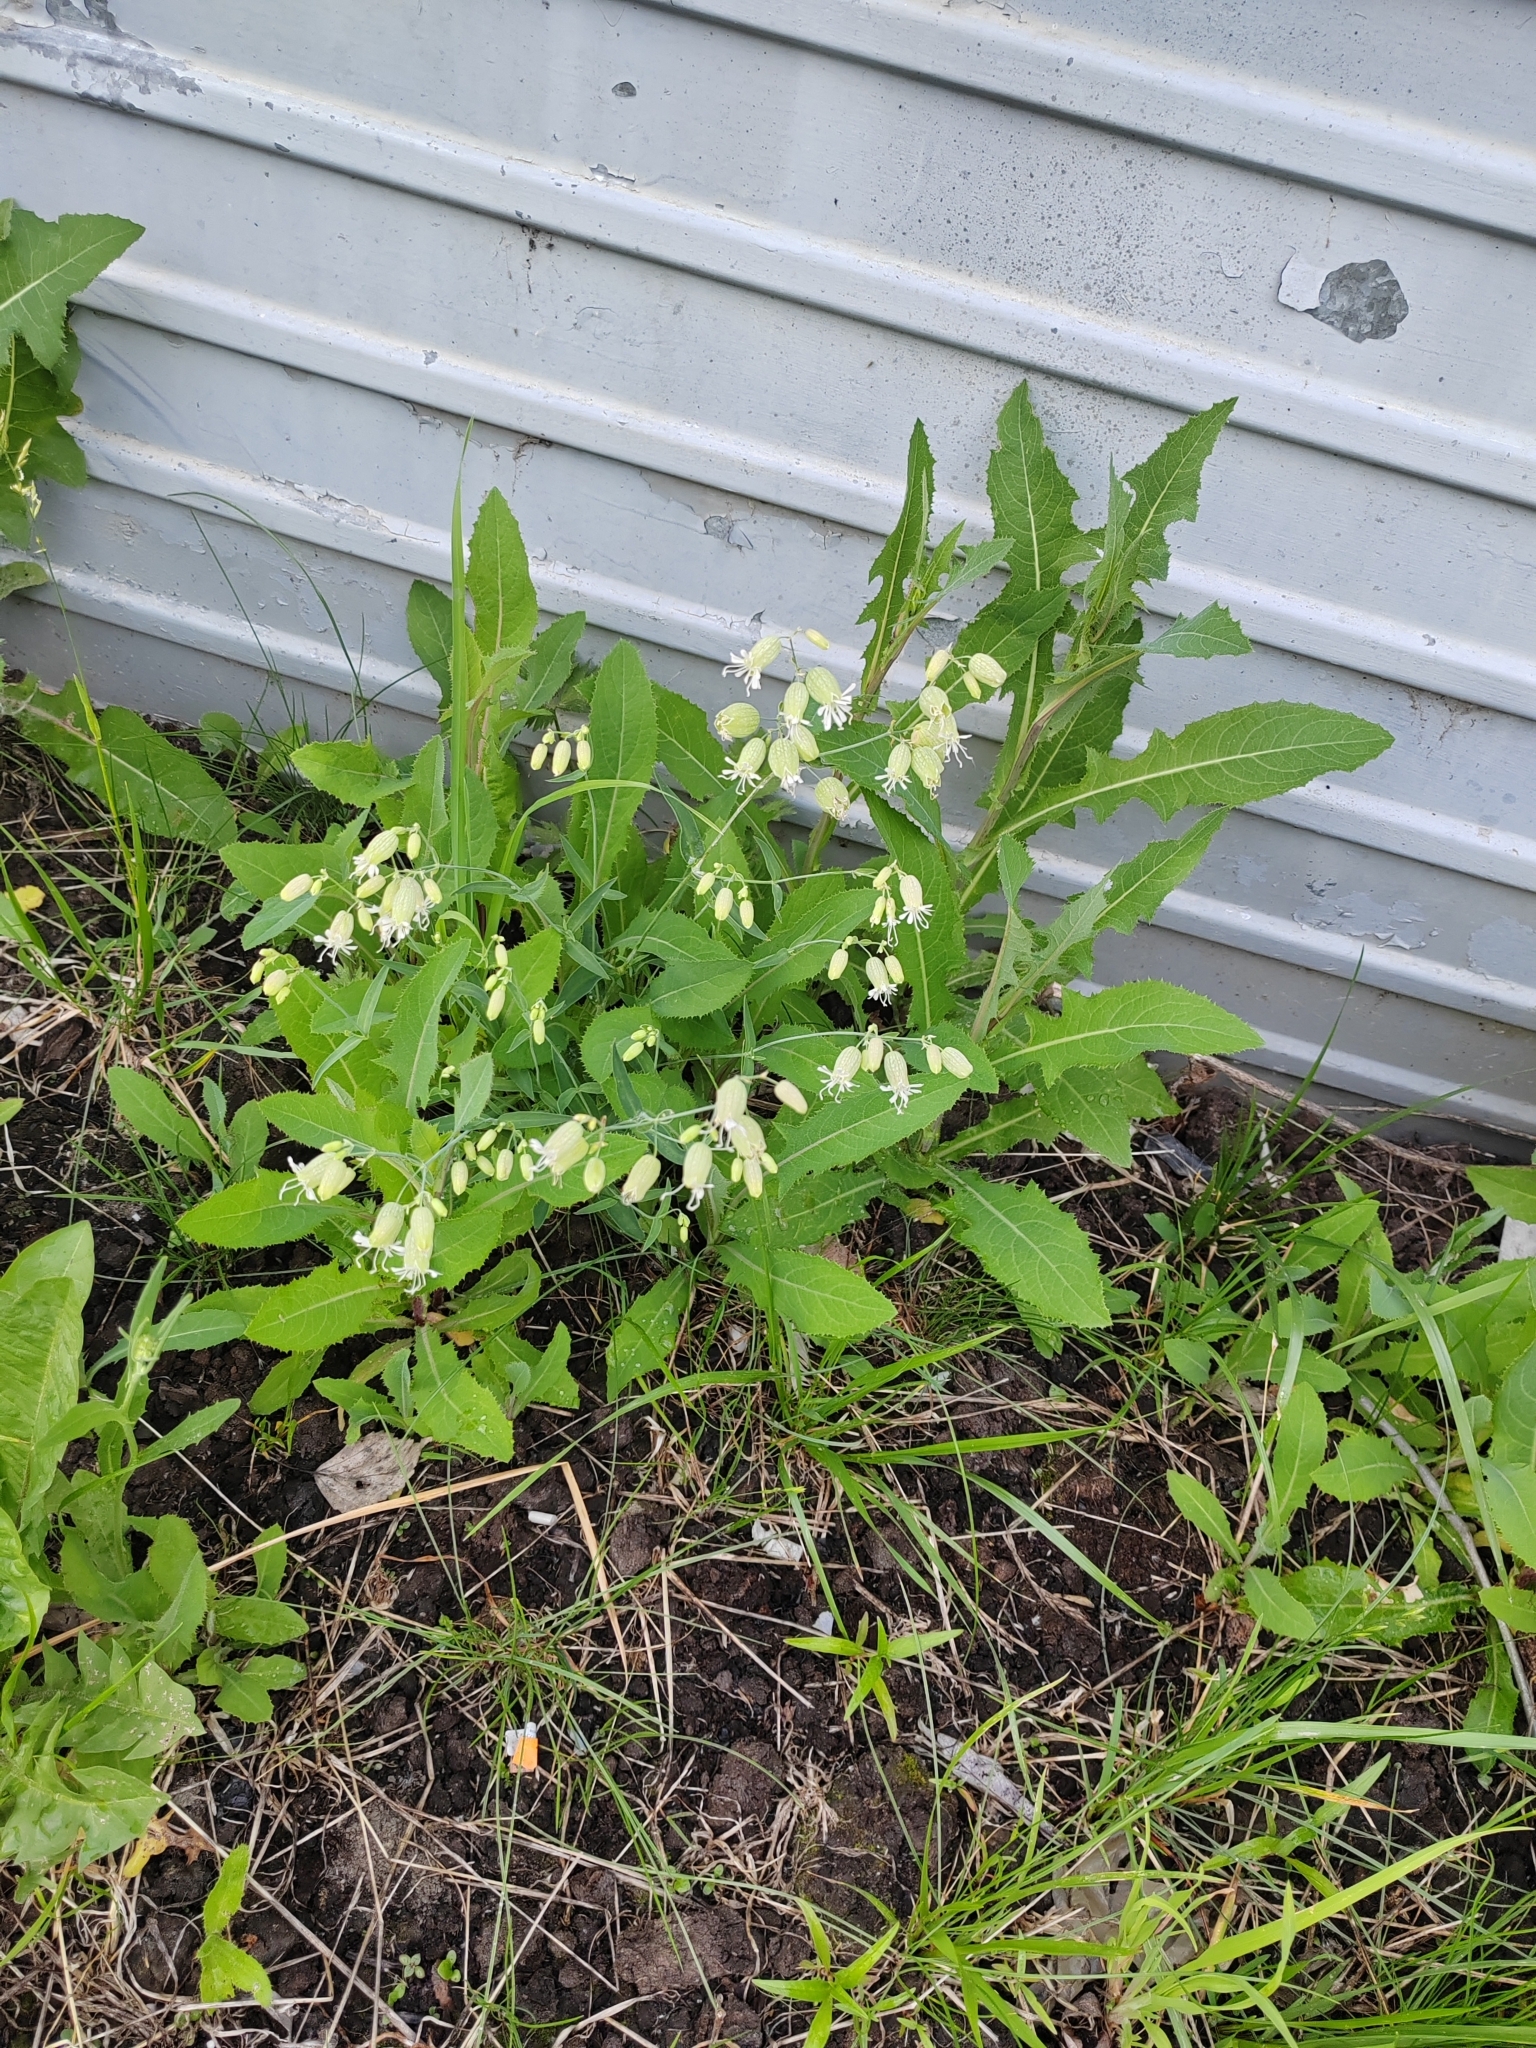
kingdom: Plantae
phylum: Tracheophyta
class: Magnoliopsida
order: Caryophyllales
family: Caryophyllaceae
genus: Silene
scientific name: Silene vulgaris
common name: Bladder campion
